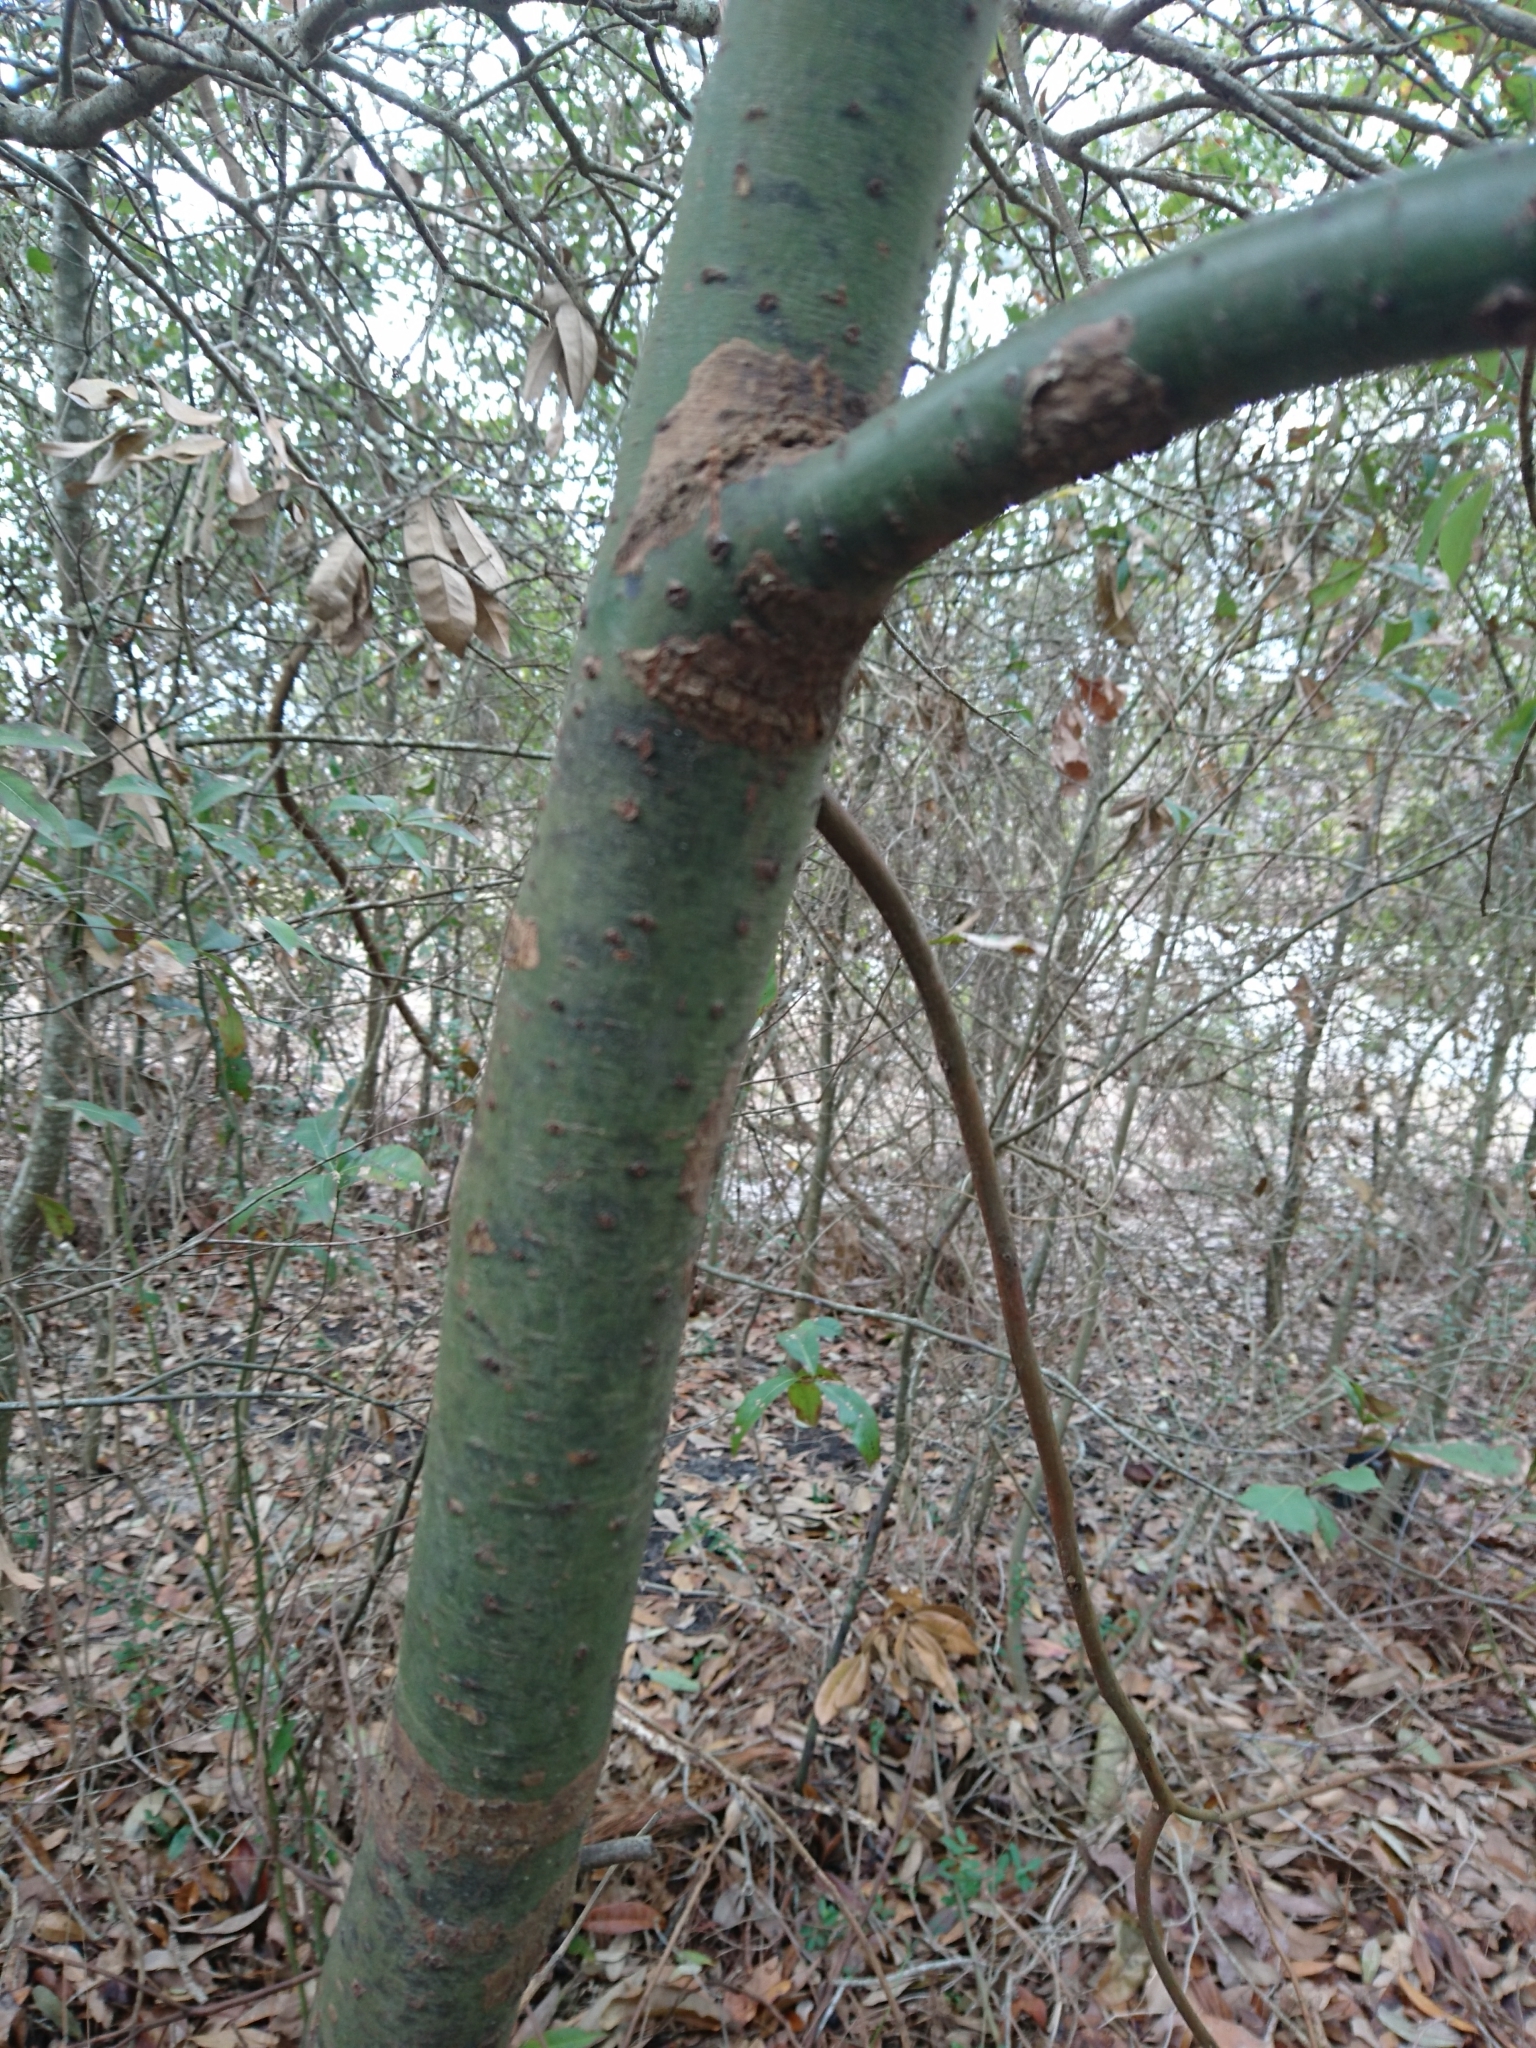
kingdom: Plantae
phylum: Tracheophyta
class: Magnoliopsida
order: Laurales
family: Lauraceae
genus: Cinnamomum
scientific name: Cinnamomum camphora
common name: Camphortree
